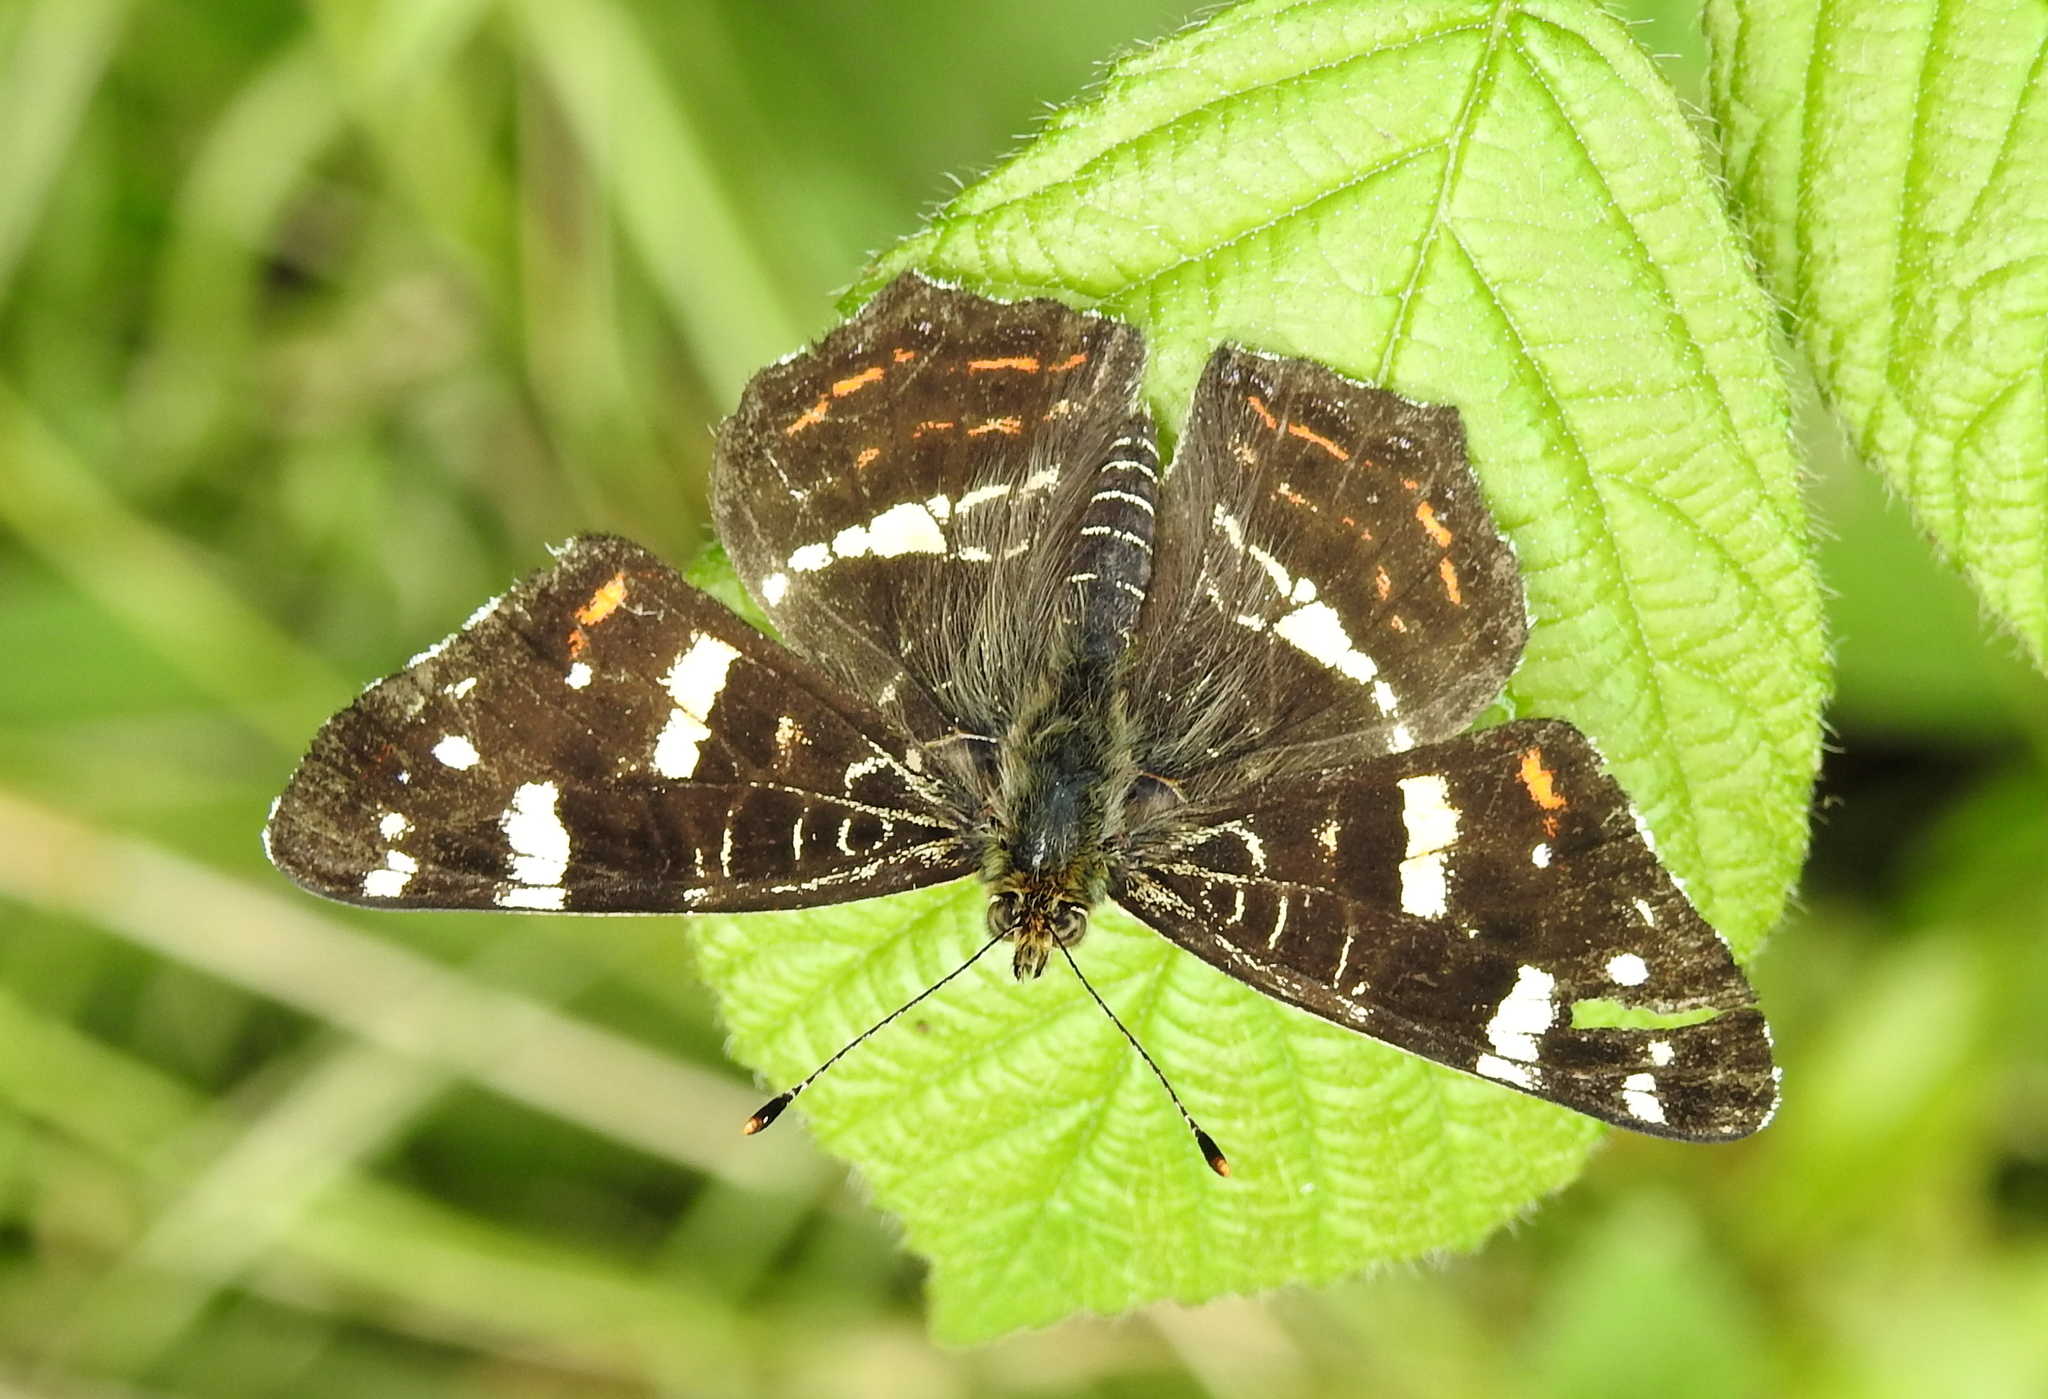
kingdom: Animalia
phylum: Arthropoda
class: Insecta
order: Lepidoptera
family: Nymphalidae
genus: Araschnia
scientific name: Araschnia levana
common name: Map butterfly
